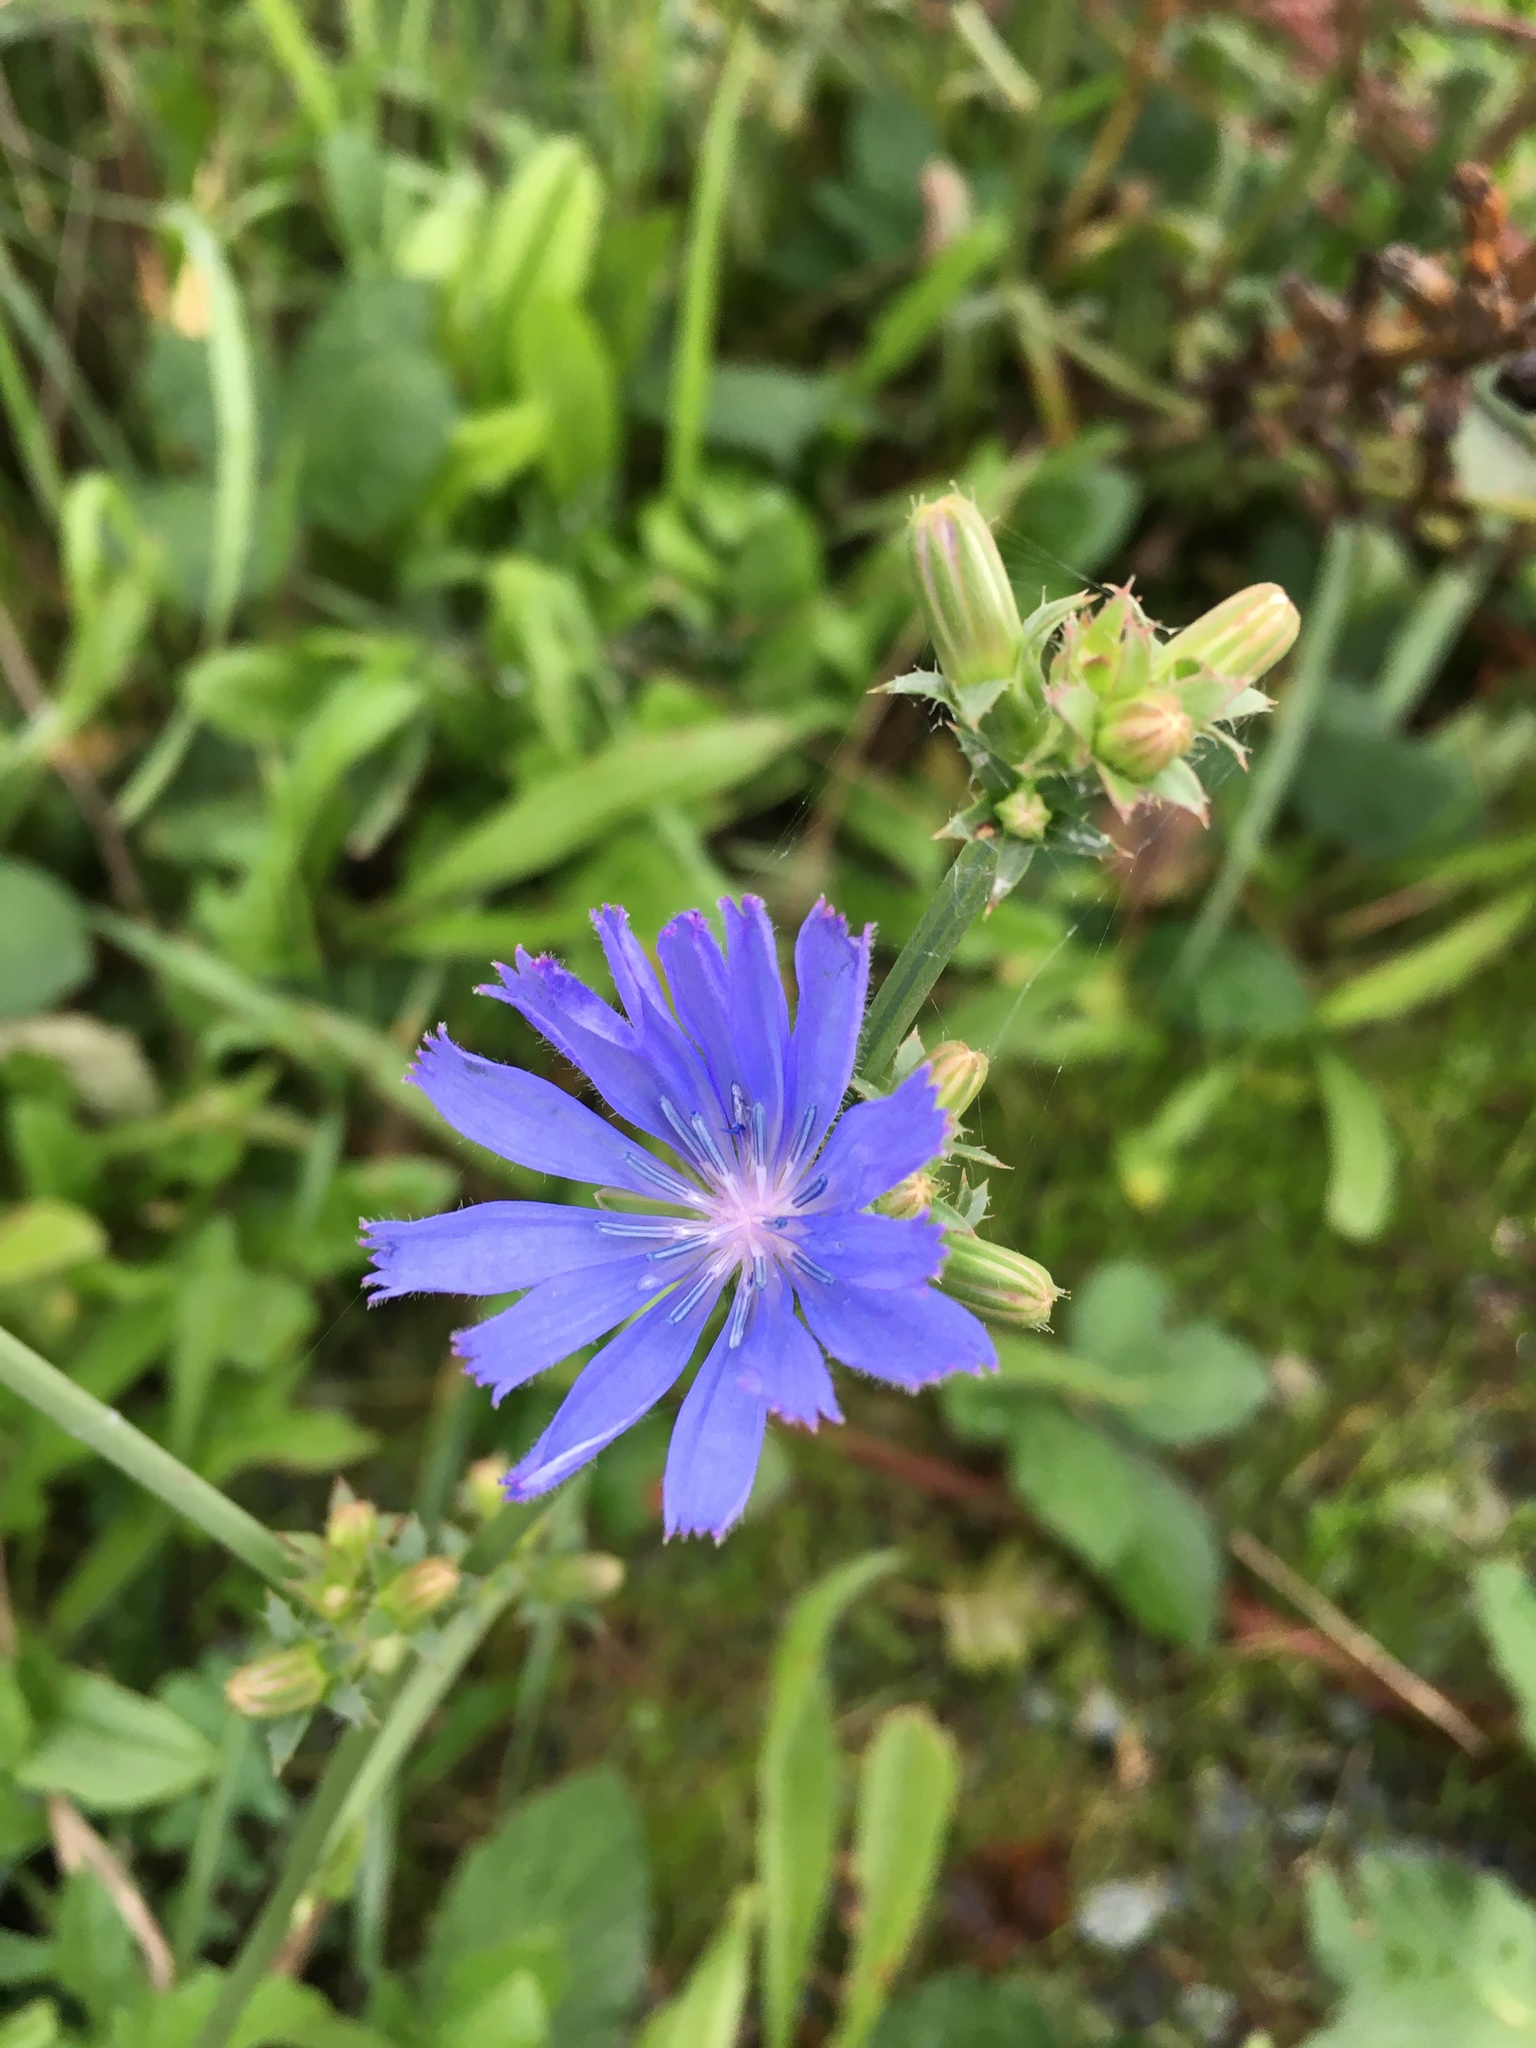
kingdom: Plantae
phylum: Tracheophyta
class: Magnoliopsida
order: Asterales
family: Asteraceae
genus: Cichorium
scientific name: Cichorium intybus
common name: Chicory
